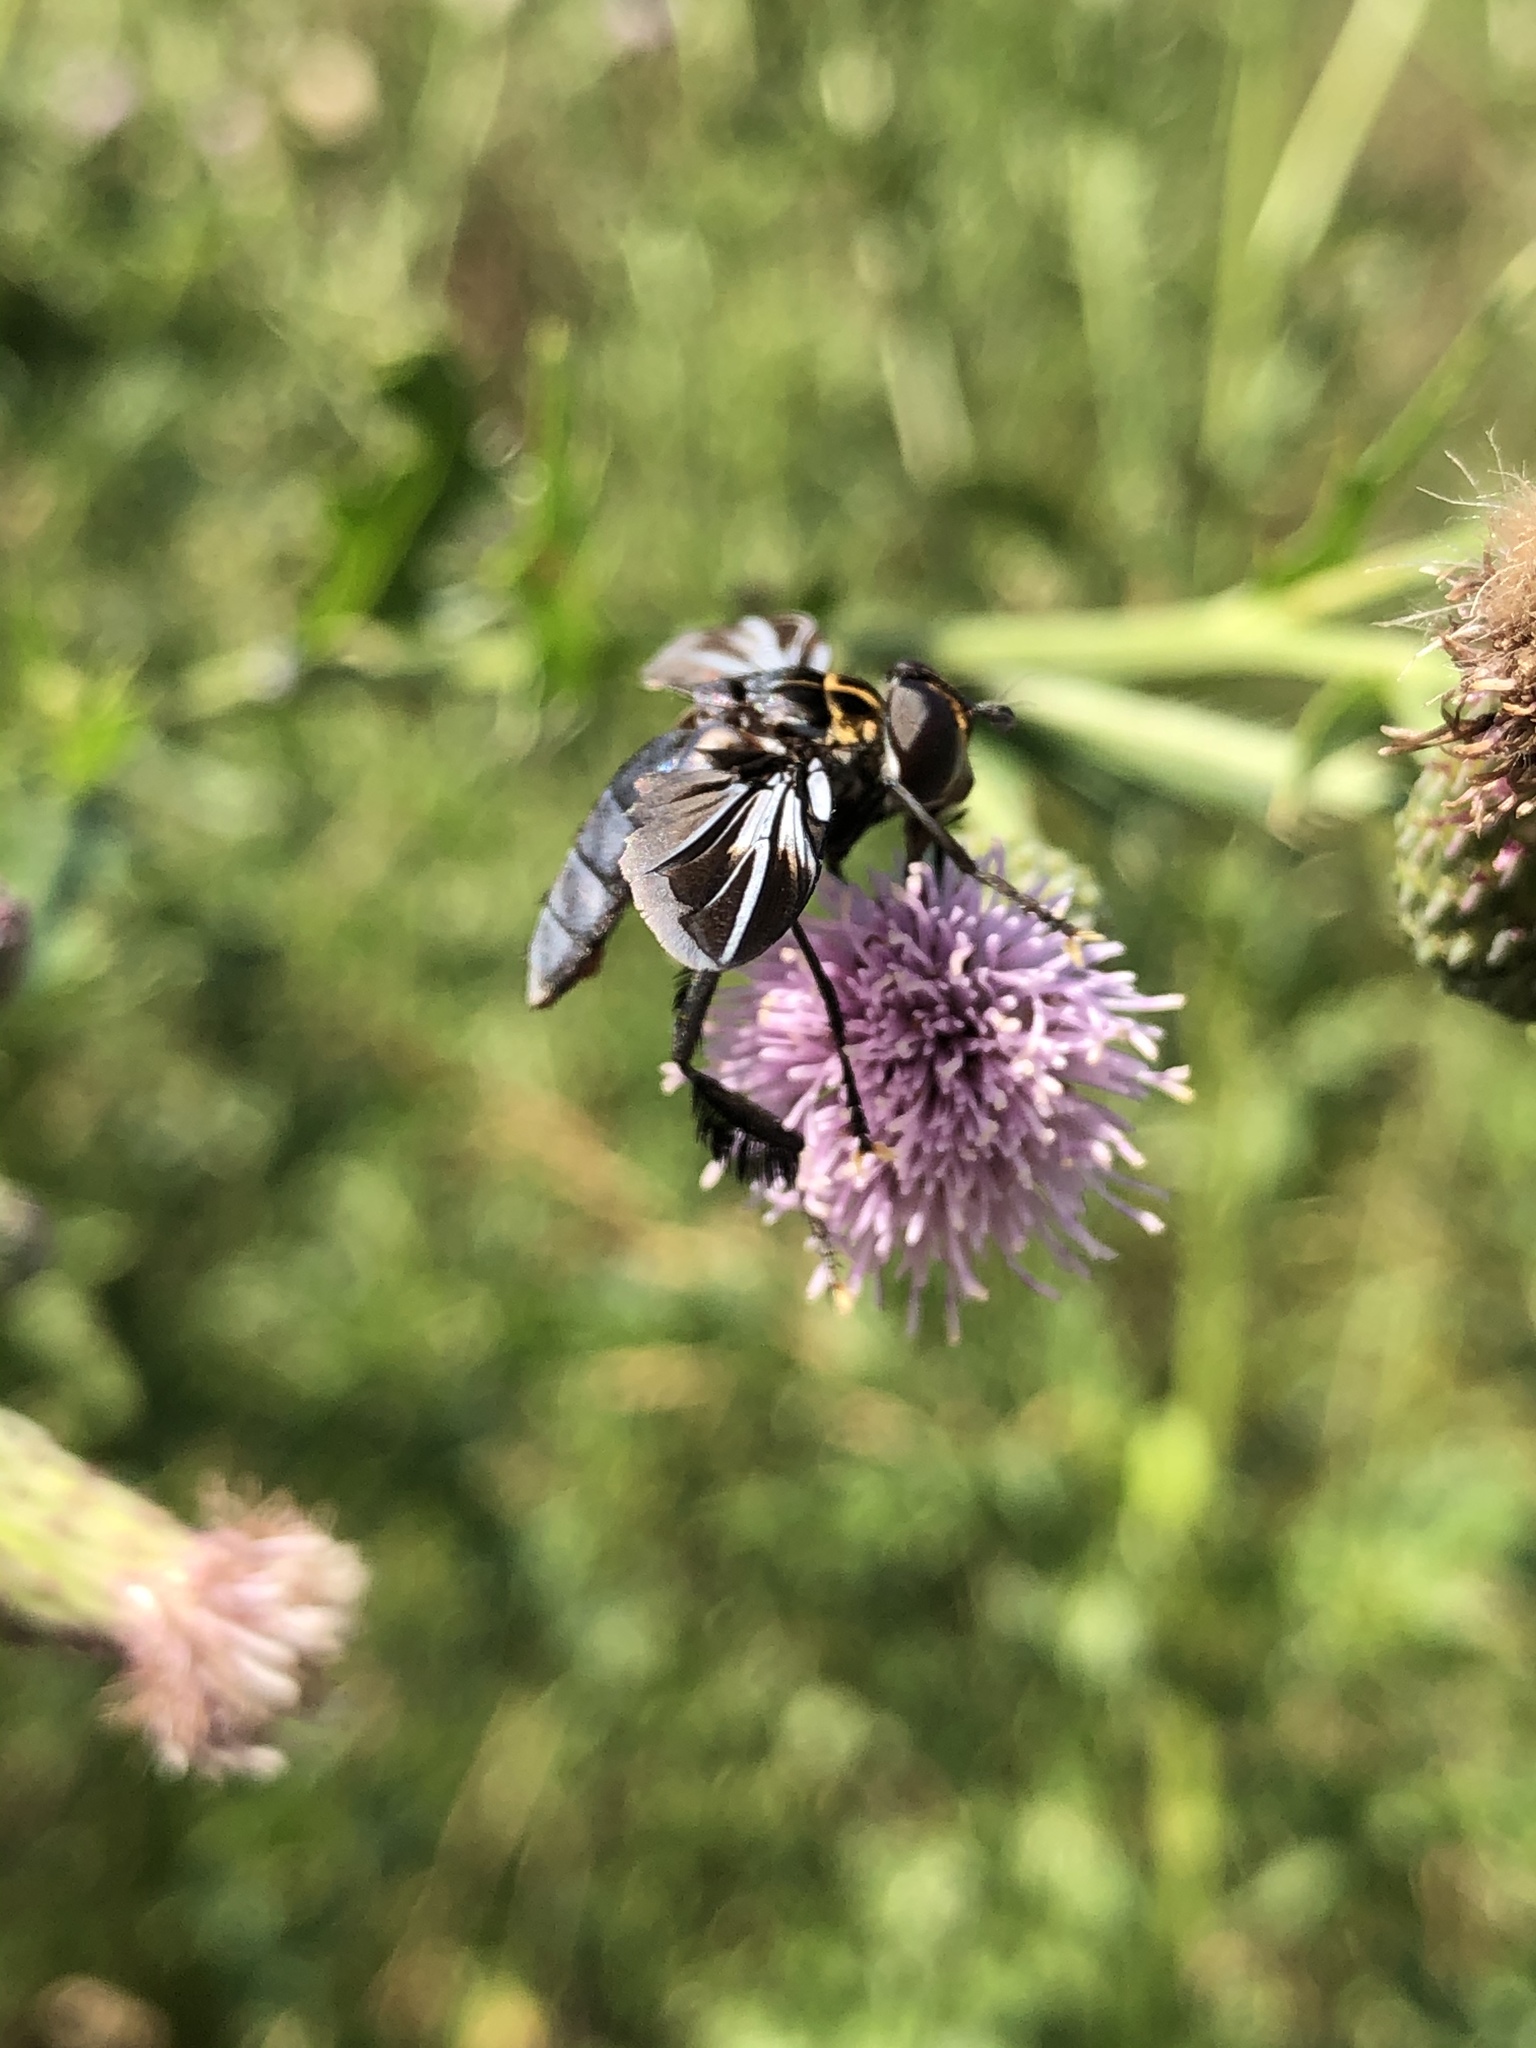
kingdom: Animalia
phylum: Arthropoda
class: Insecta
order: Diptera
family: Tachinidae
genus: Trichopoda
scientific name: Trichopoda lanipes
